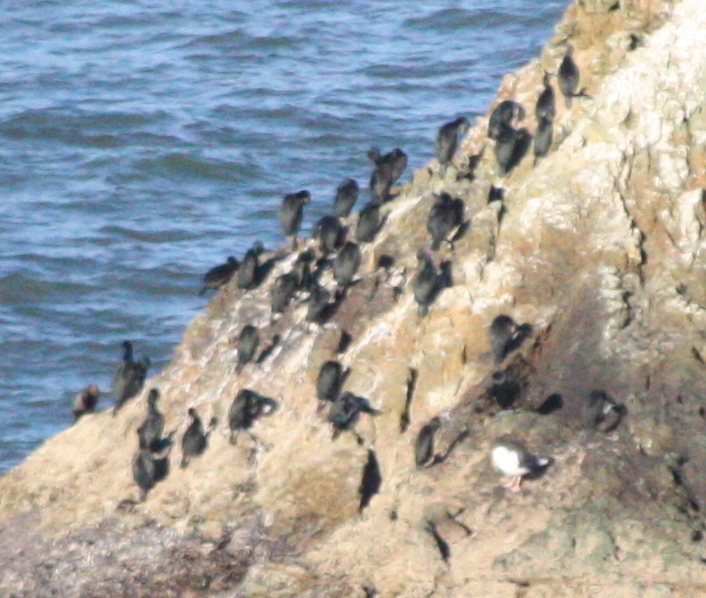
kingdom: Animalia
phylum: Chordata
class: Aves
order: Suliformes
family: Phalacrocoracidae
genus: Urile
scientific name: Urile penicillatus
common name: Brandt's cormorant
